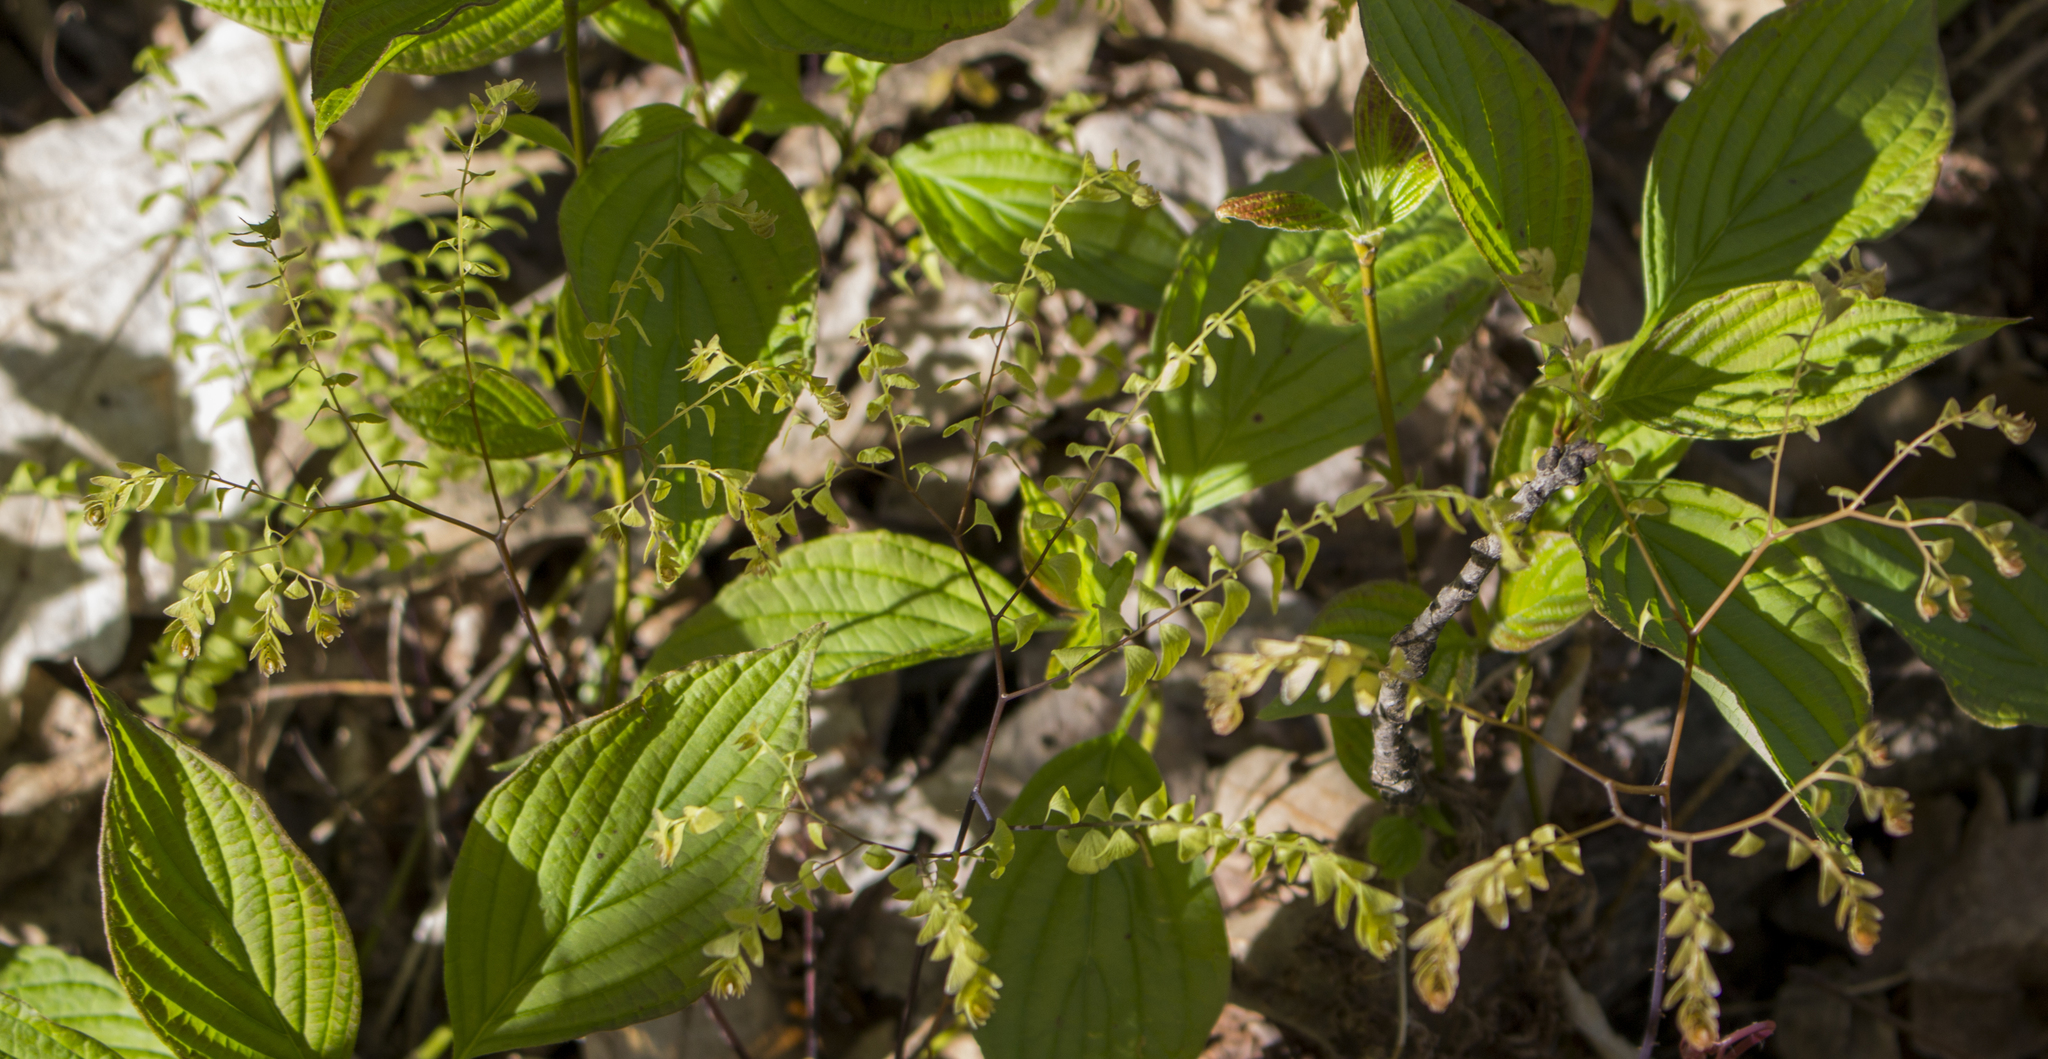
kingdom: Plantae
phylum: Tracheophyta
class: Polypodiopsida
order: Polypodiales
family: Pteridaceae
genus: Adiantum
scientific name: Adiantum pedatum
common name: Five-finger fern
